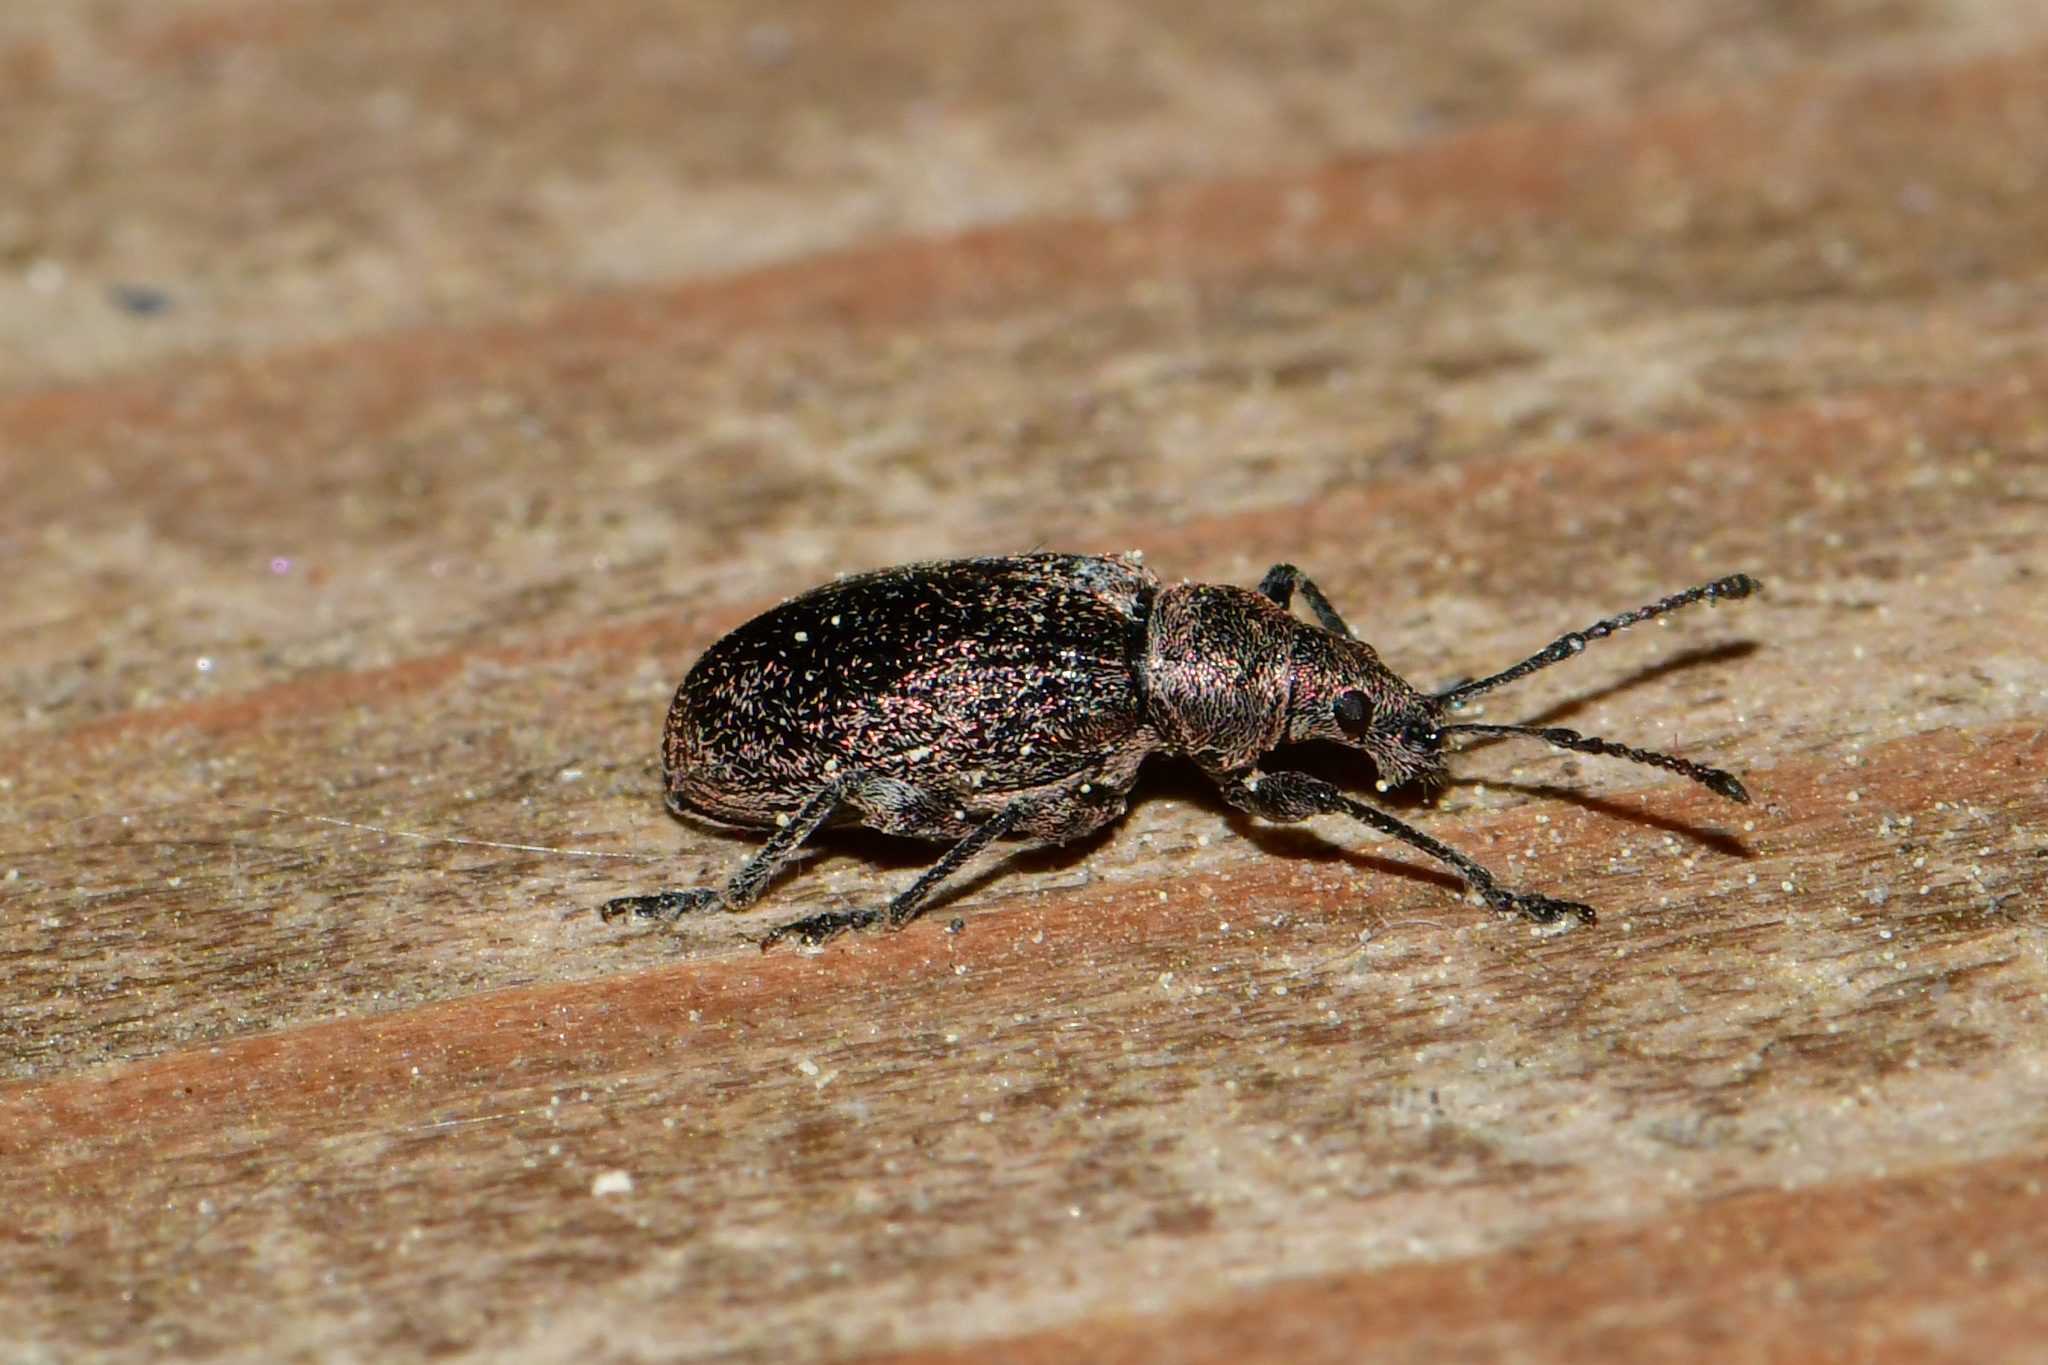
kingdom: Animalia
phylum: Arthropoda
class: Insecta
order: Coleoptera
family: Curculionidae
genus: Phyllobius
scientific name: Phyllobius pyri
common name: Common leaf weevil
